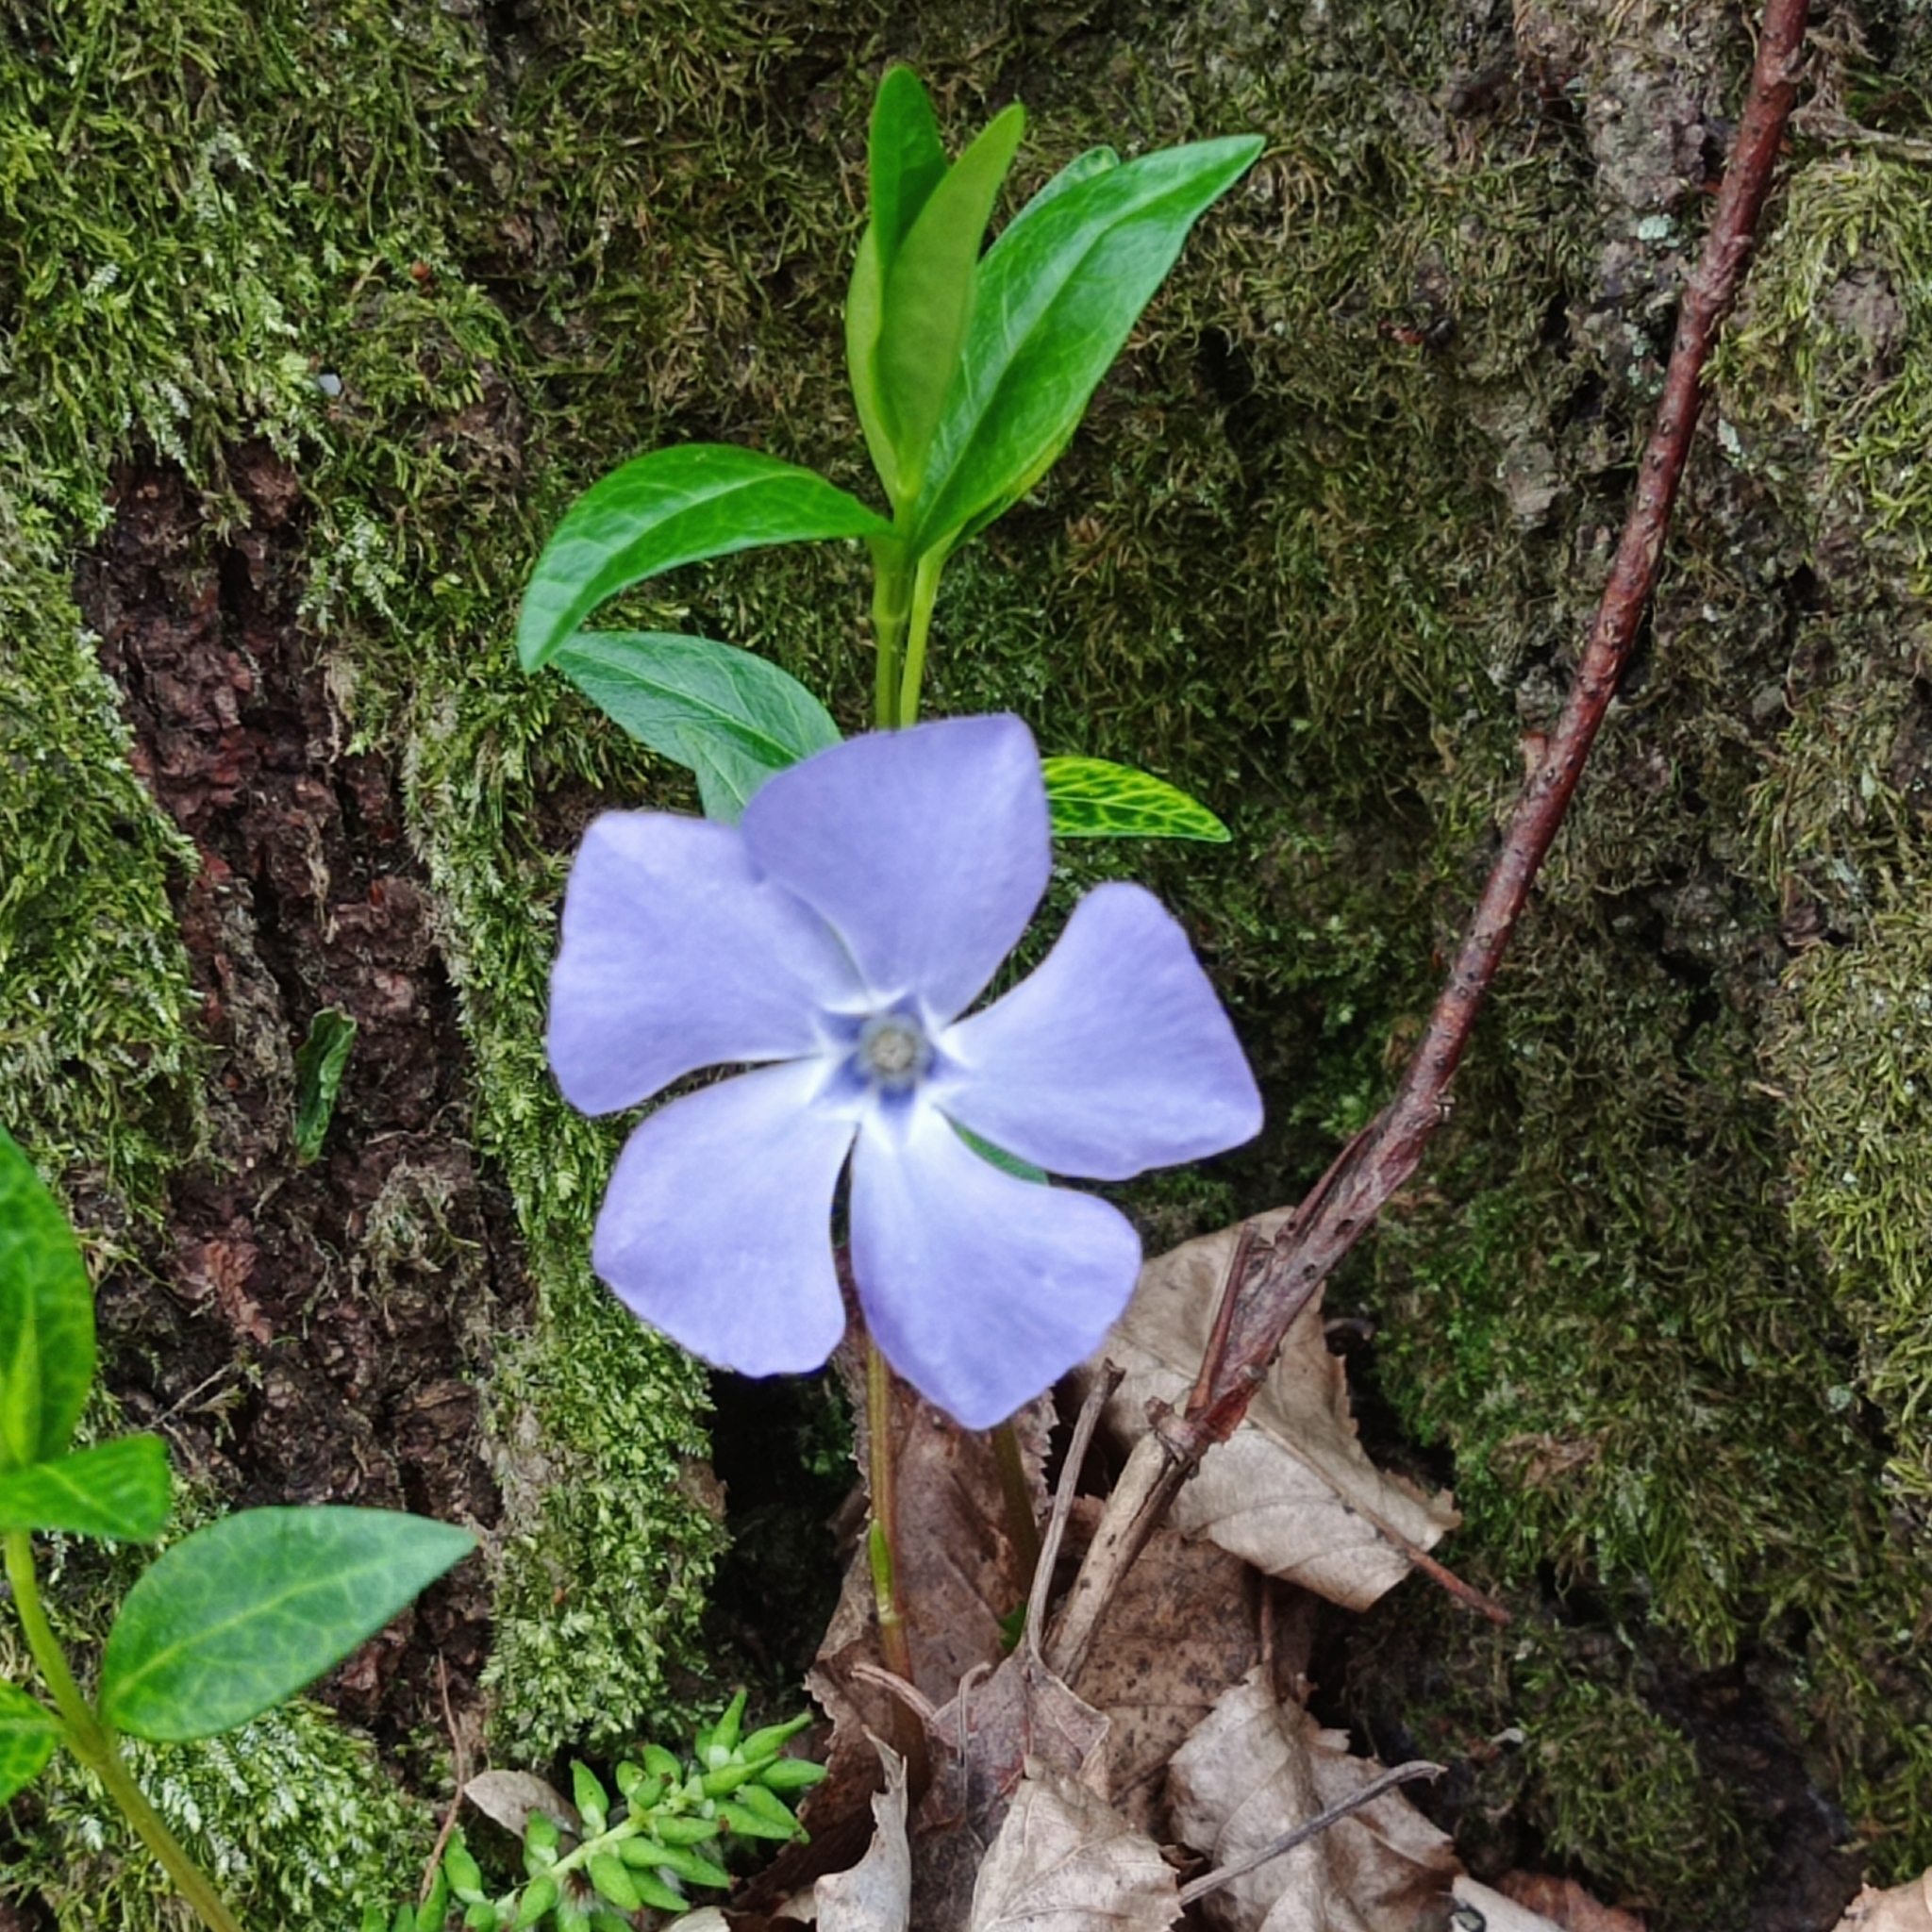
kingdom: Plantae
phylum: Tracheophyta
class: Magnoliopsida
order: Gentianales
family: Apocynaceae
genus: Vinca
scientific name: Vinca minor
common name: Lesser periwinkle
